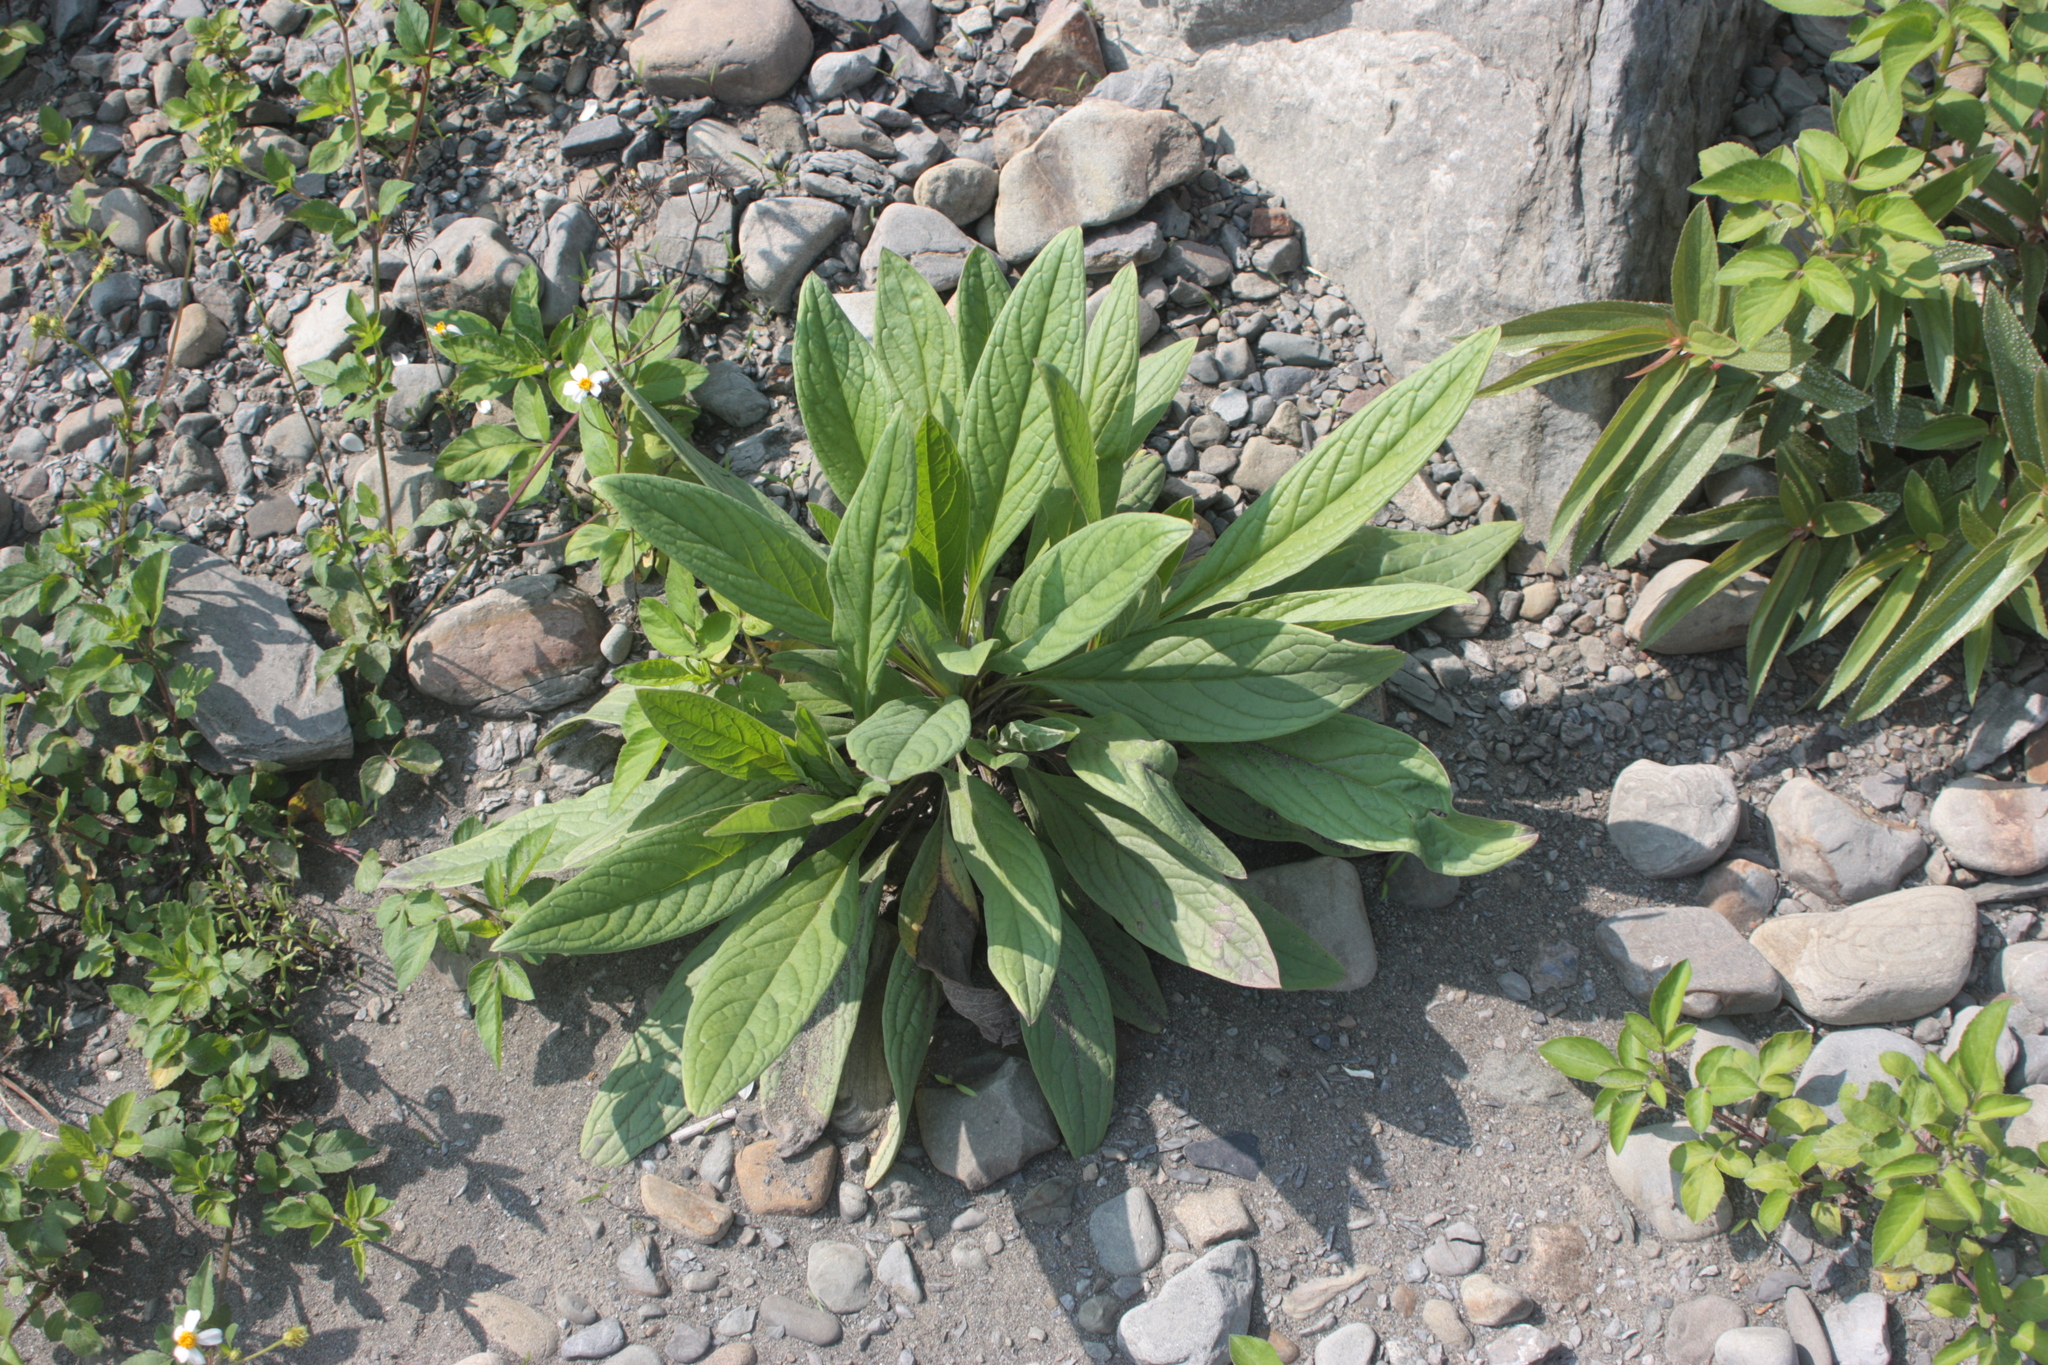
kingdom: Plantae
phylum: Tracheophyta
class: Magnoliopsida
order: Boraginales
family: Boraginaceae
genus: Cynoglossum
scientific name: Cynoglossum zeylanicum
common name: Ceylon hound's tongue
